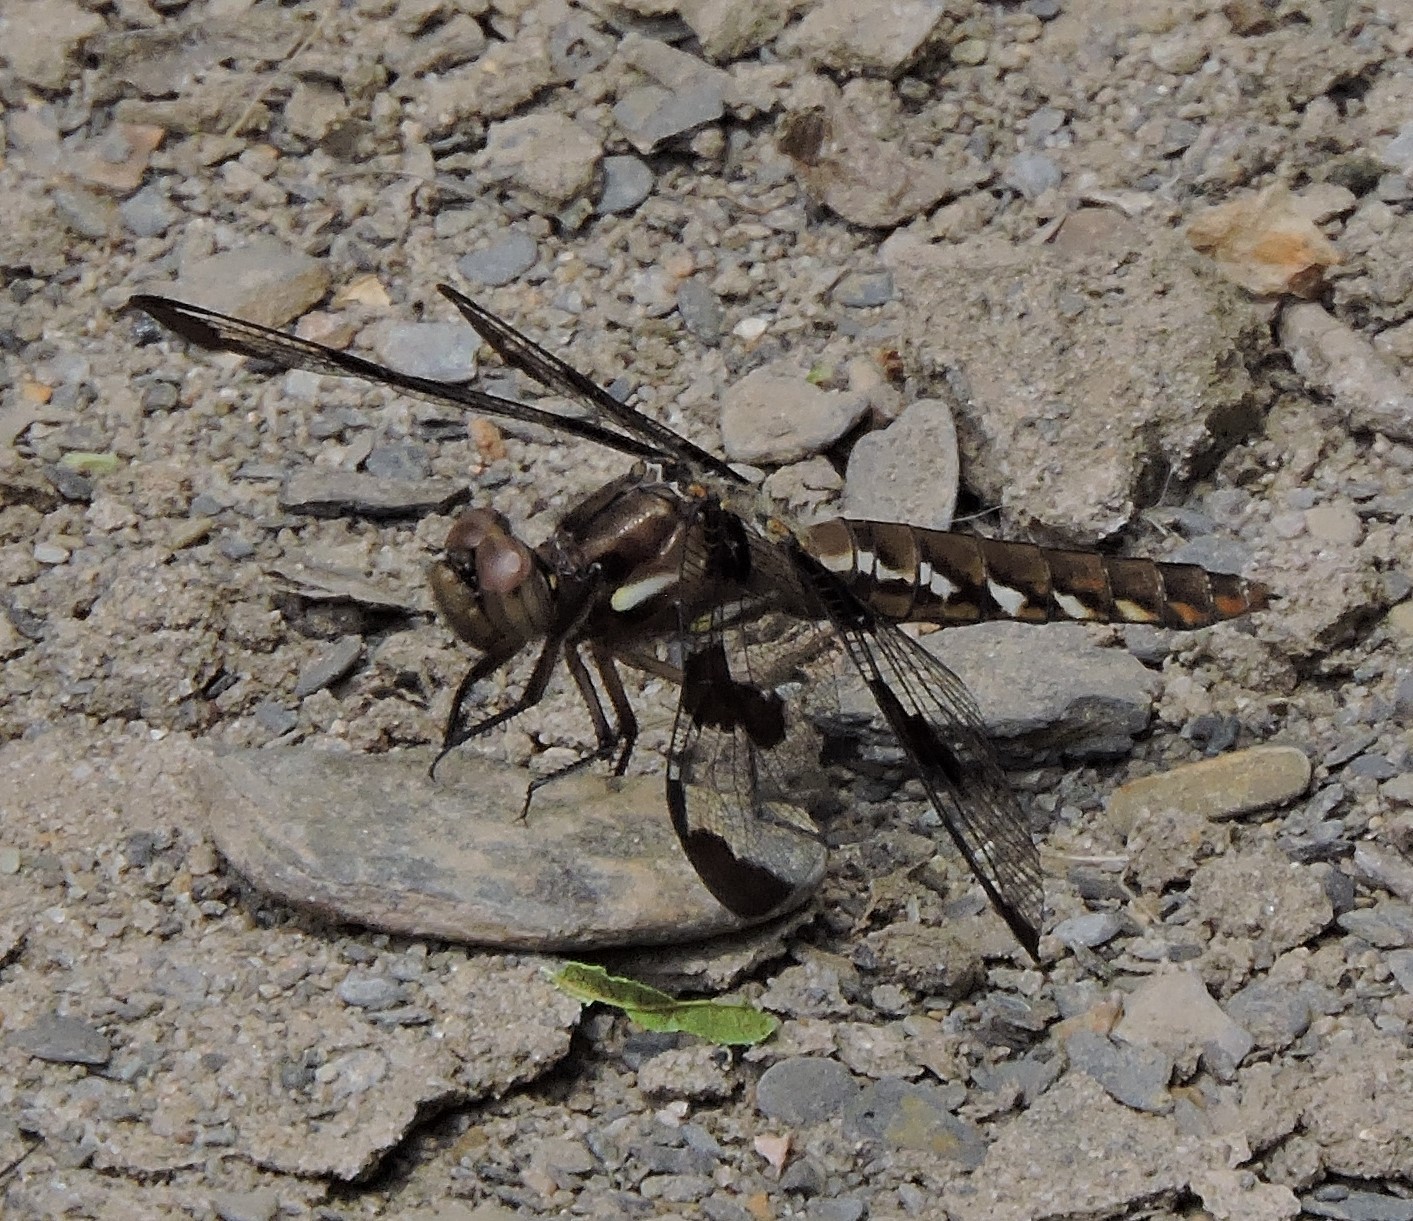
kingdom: Animalia
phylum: Arthropoda
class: Insecta
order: Odonata
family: Libellulidae
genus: Plathemis
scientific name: Plathemis lydia
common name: Common whitetail
